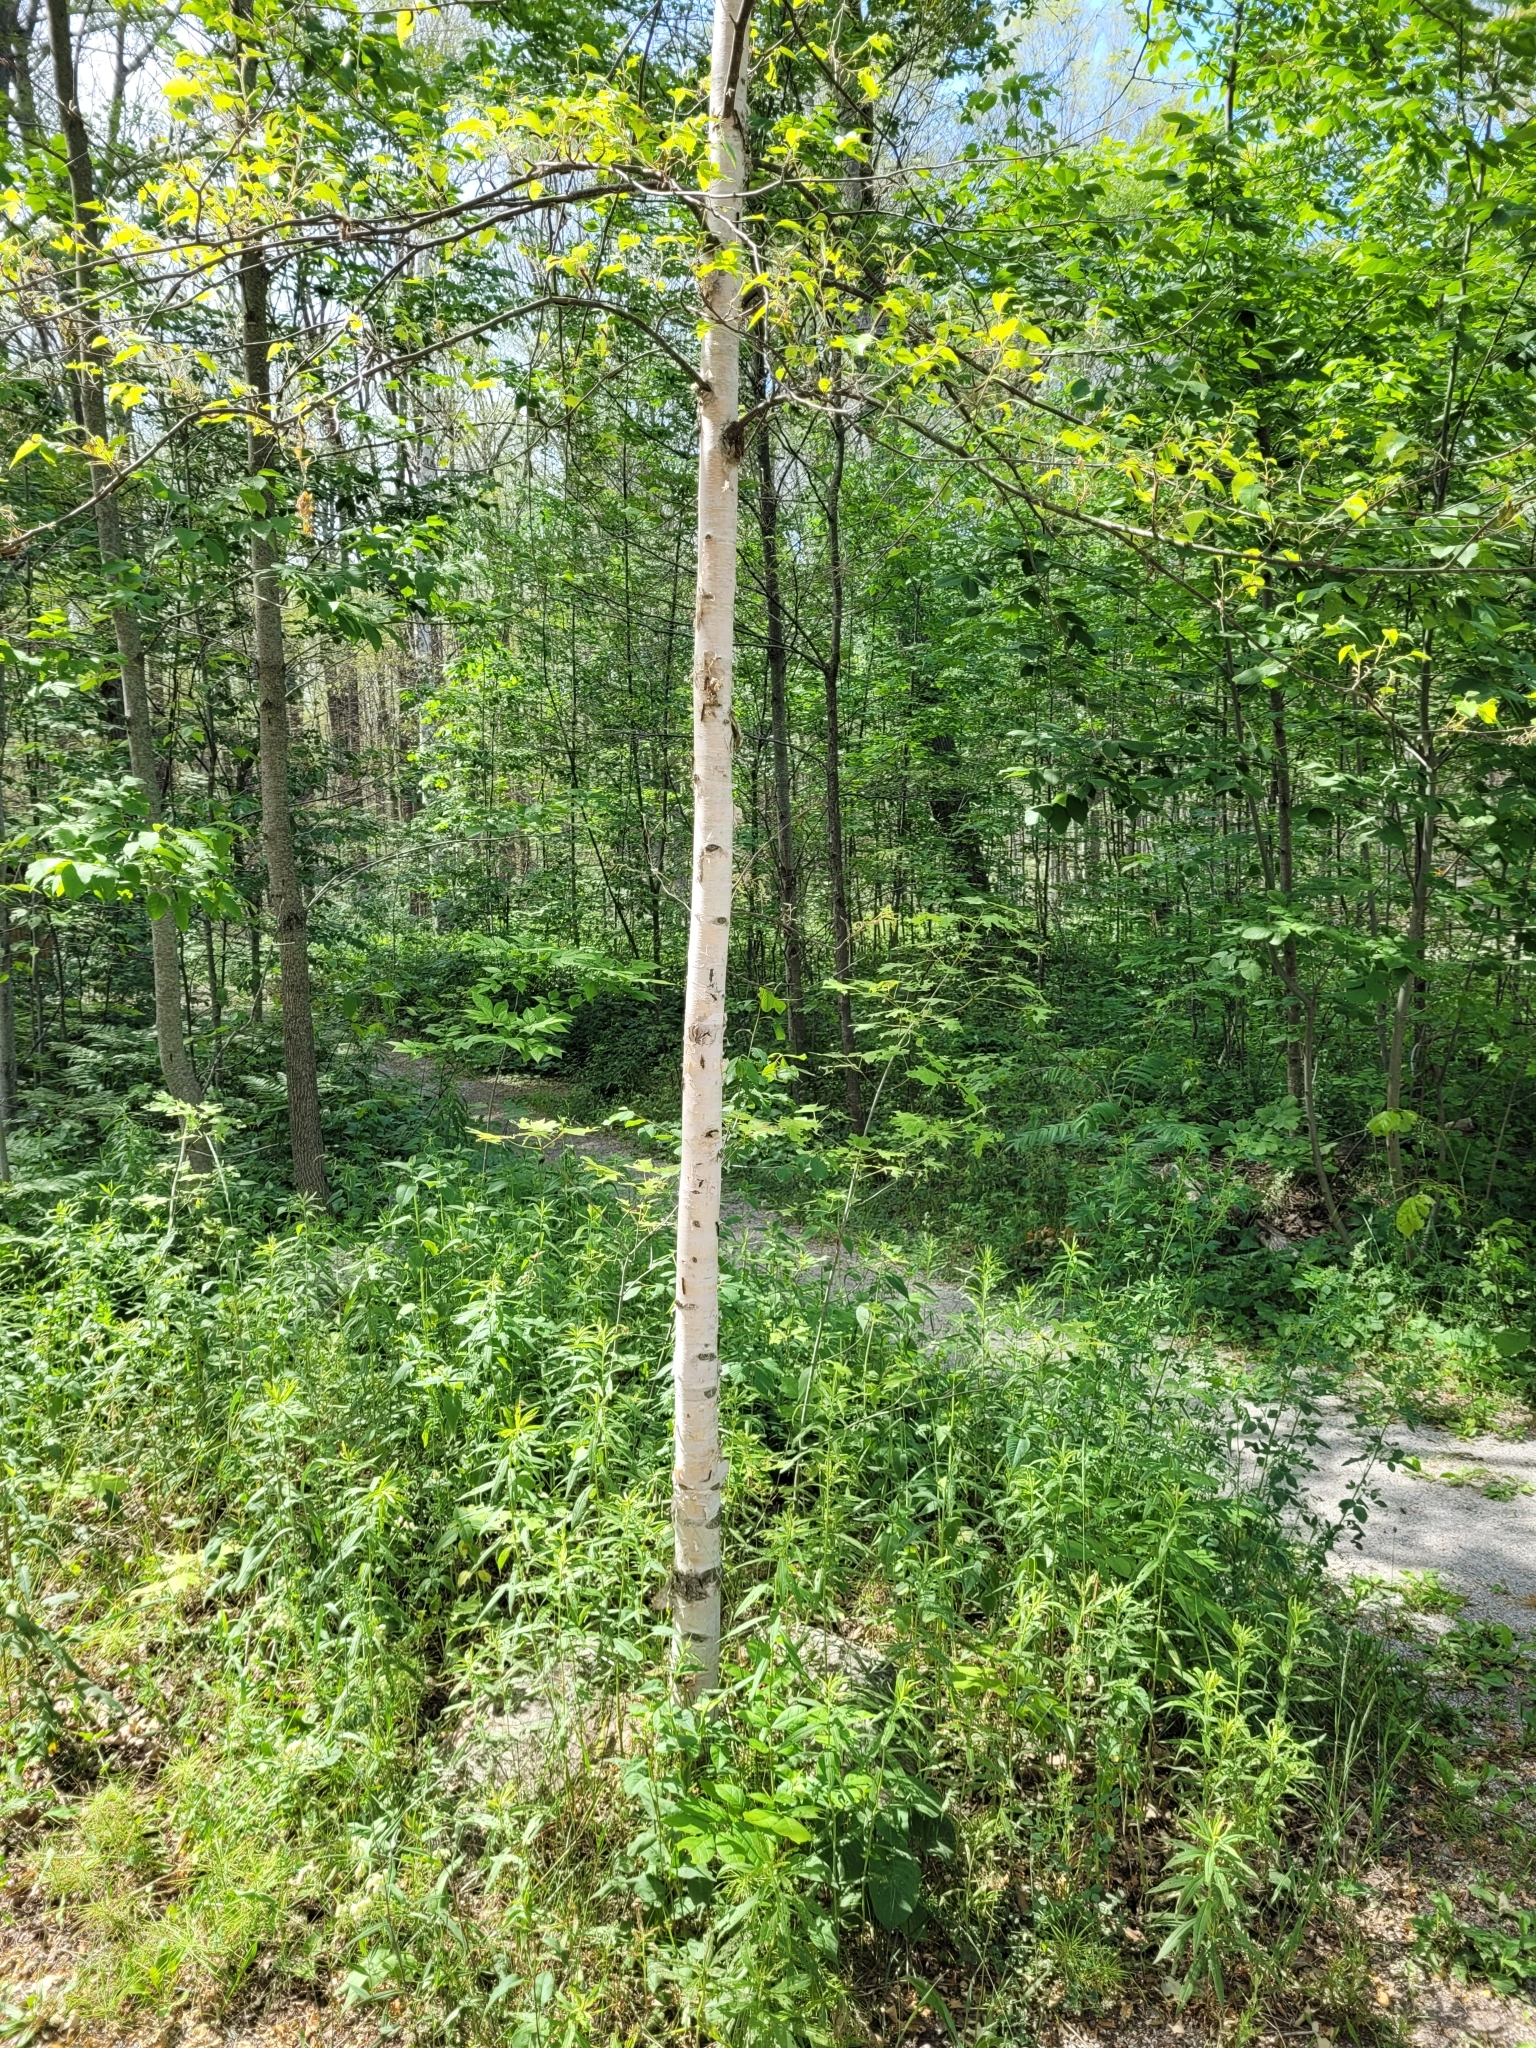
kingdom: Plantae
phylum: Tracheophyta
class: Magnoliopsida
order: Fagales
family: Betulaceae
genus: Betula
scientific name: Betula papyrifera
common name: Paper birch
